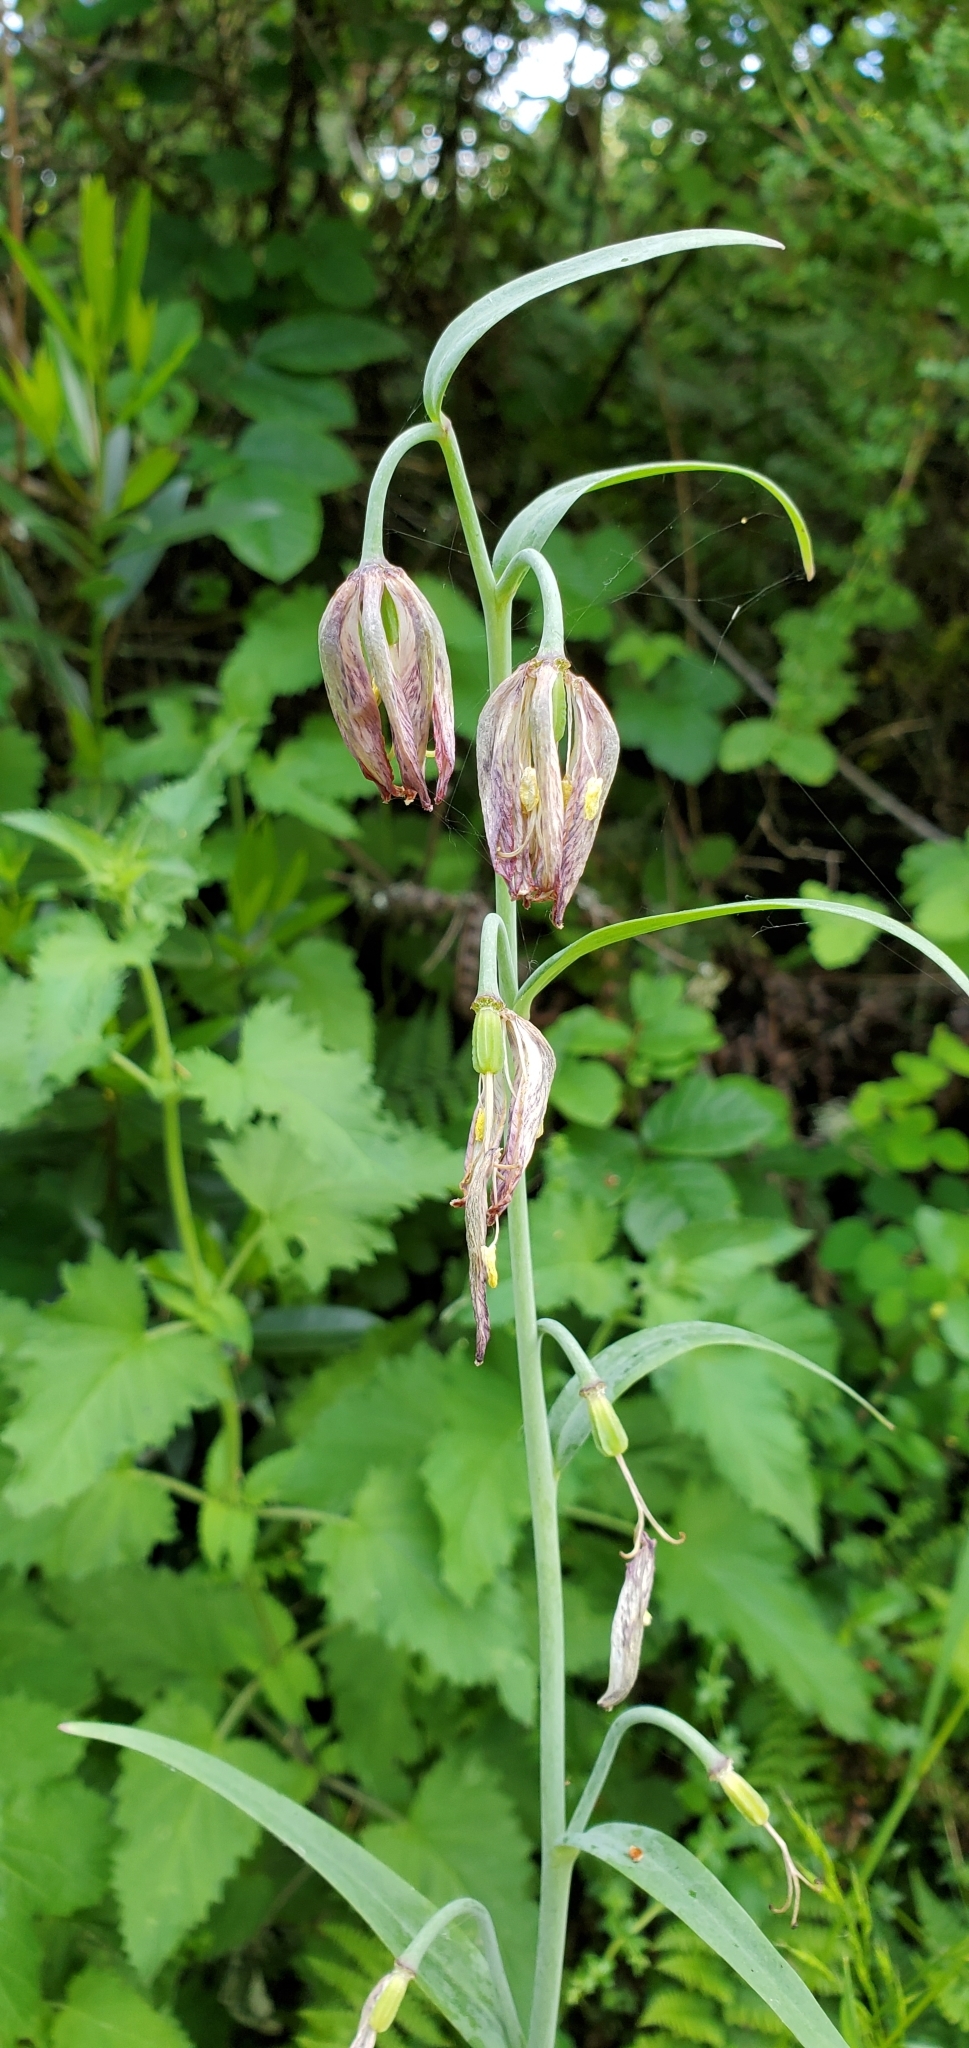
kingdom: Plantae
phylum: Tracheophyta
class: Liliopsida
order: Liliales
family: Liliaceae
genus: Fritillaria
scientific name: Fritillaria affinis
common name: Ojai fritillary
